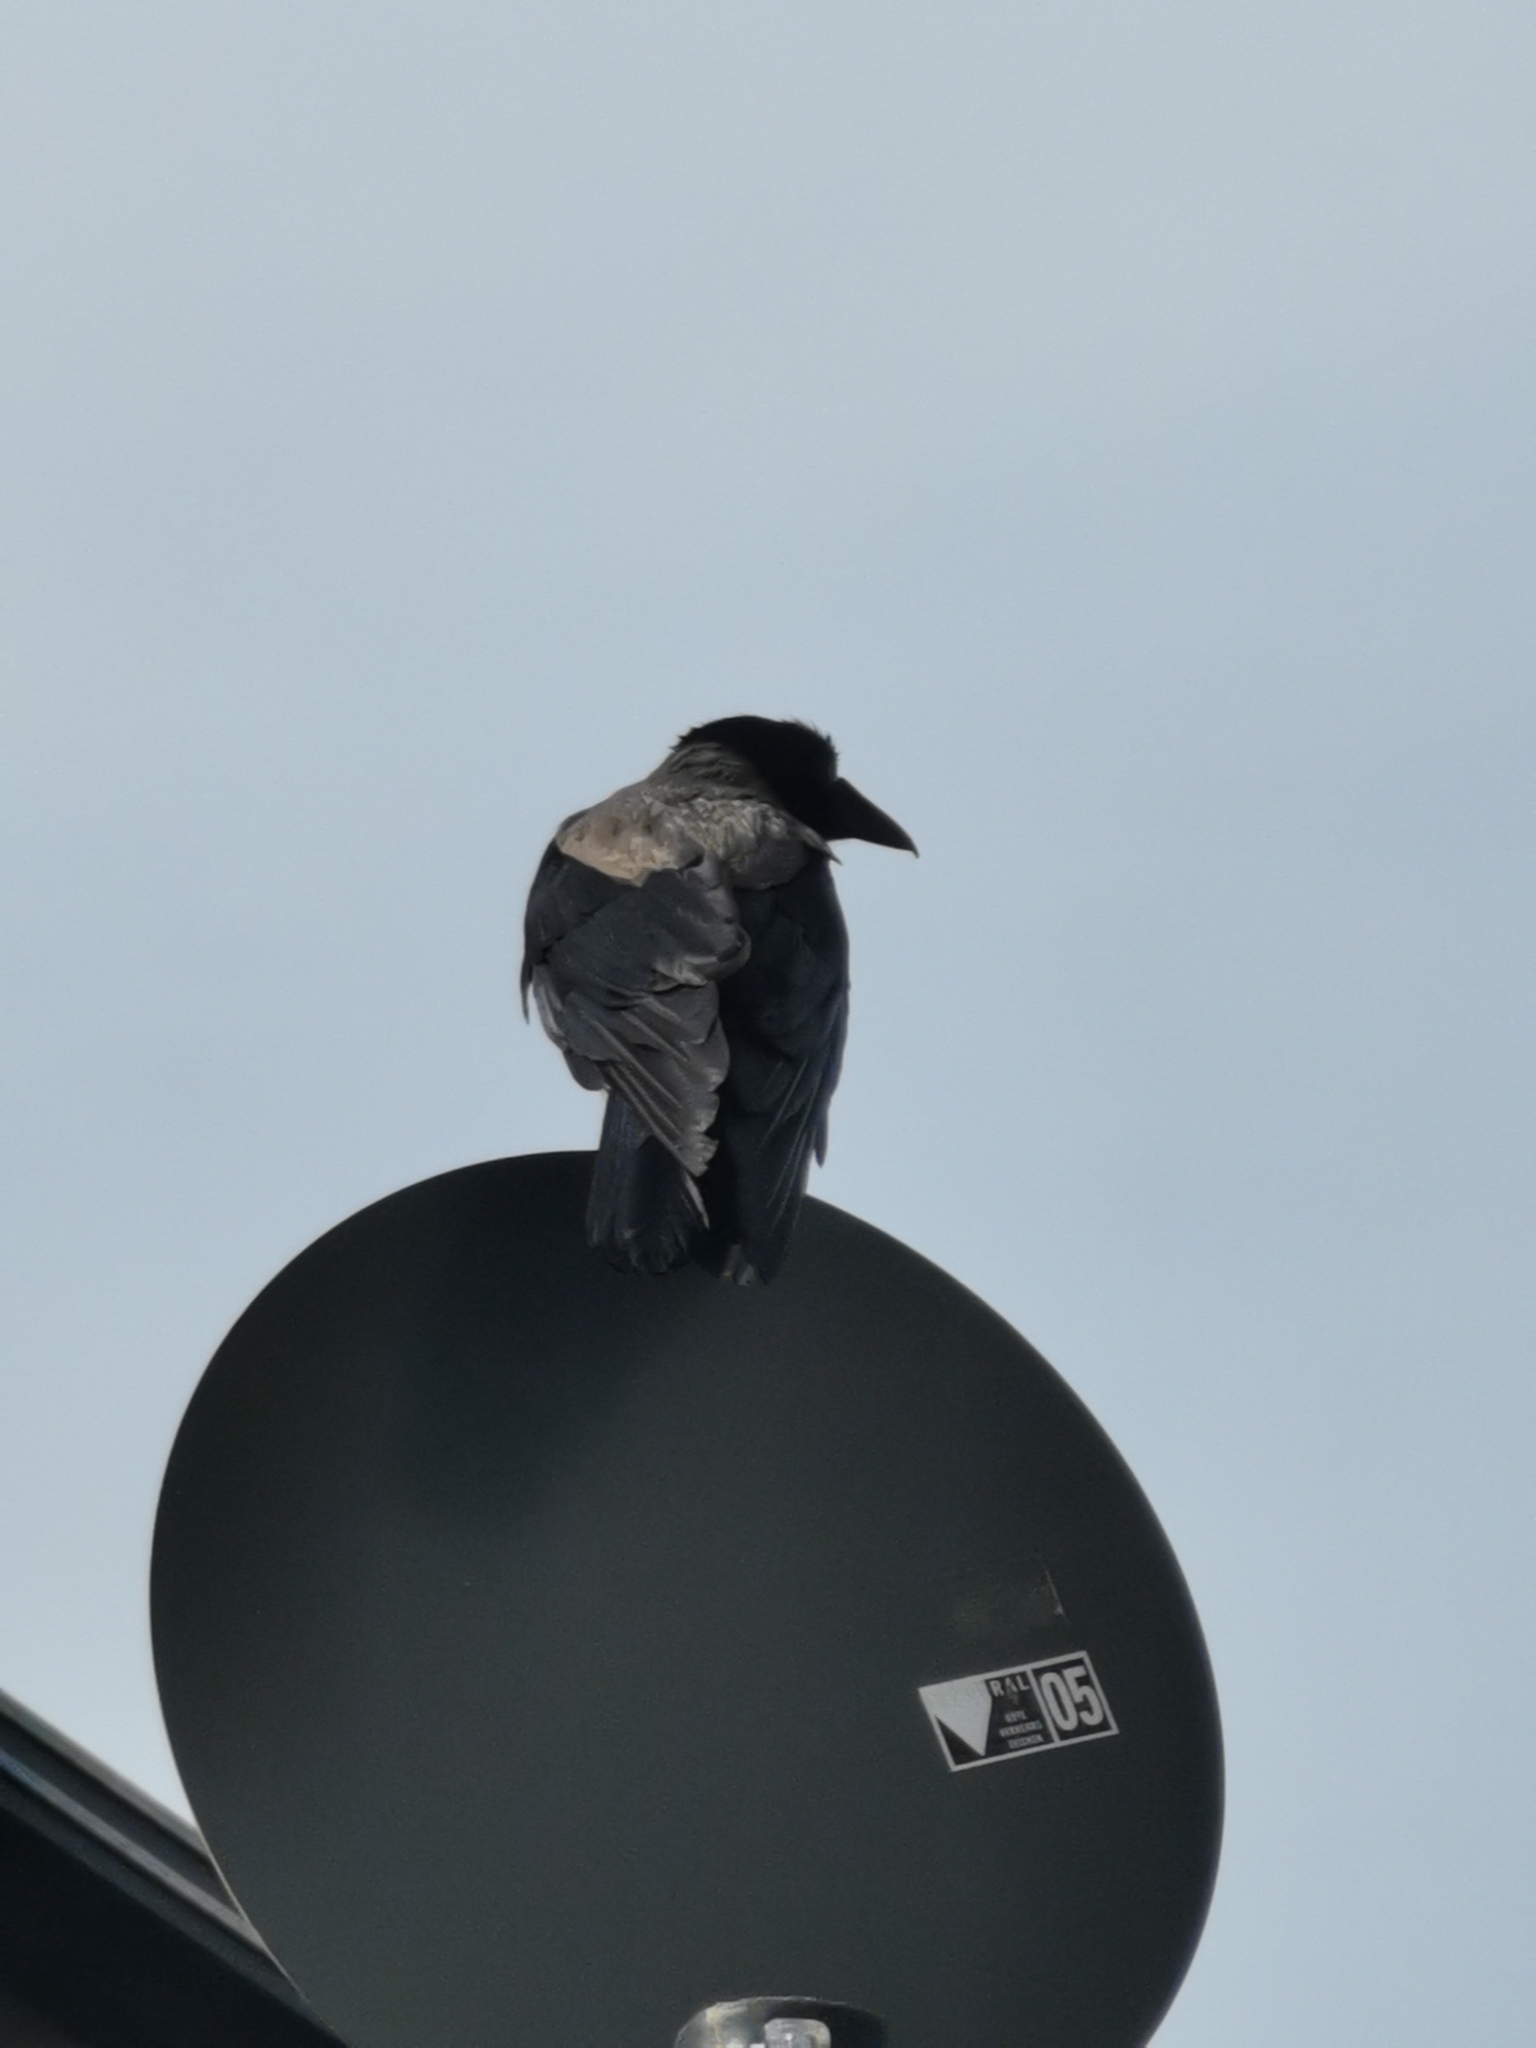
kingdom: Animalia
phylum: Chordata
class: Aves
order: Passeriformes
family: Corvidae
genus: Corvus
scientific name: Corvus cornix
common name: Hooded crow
